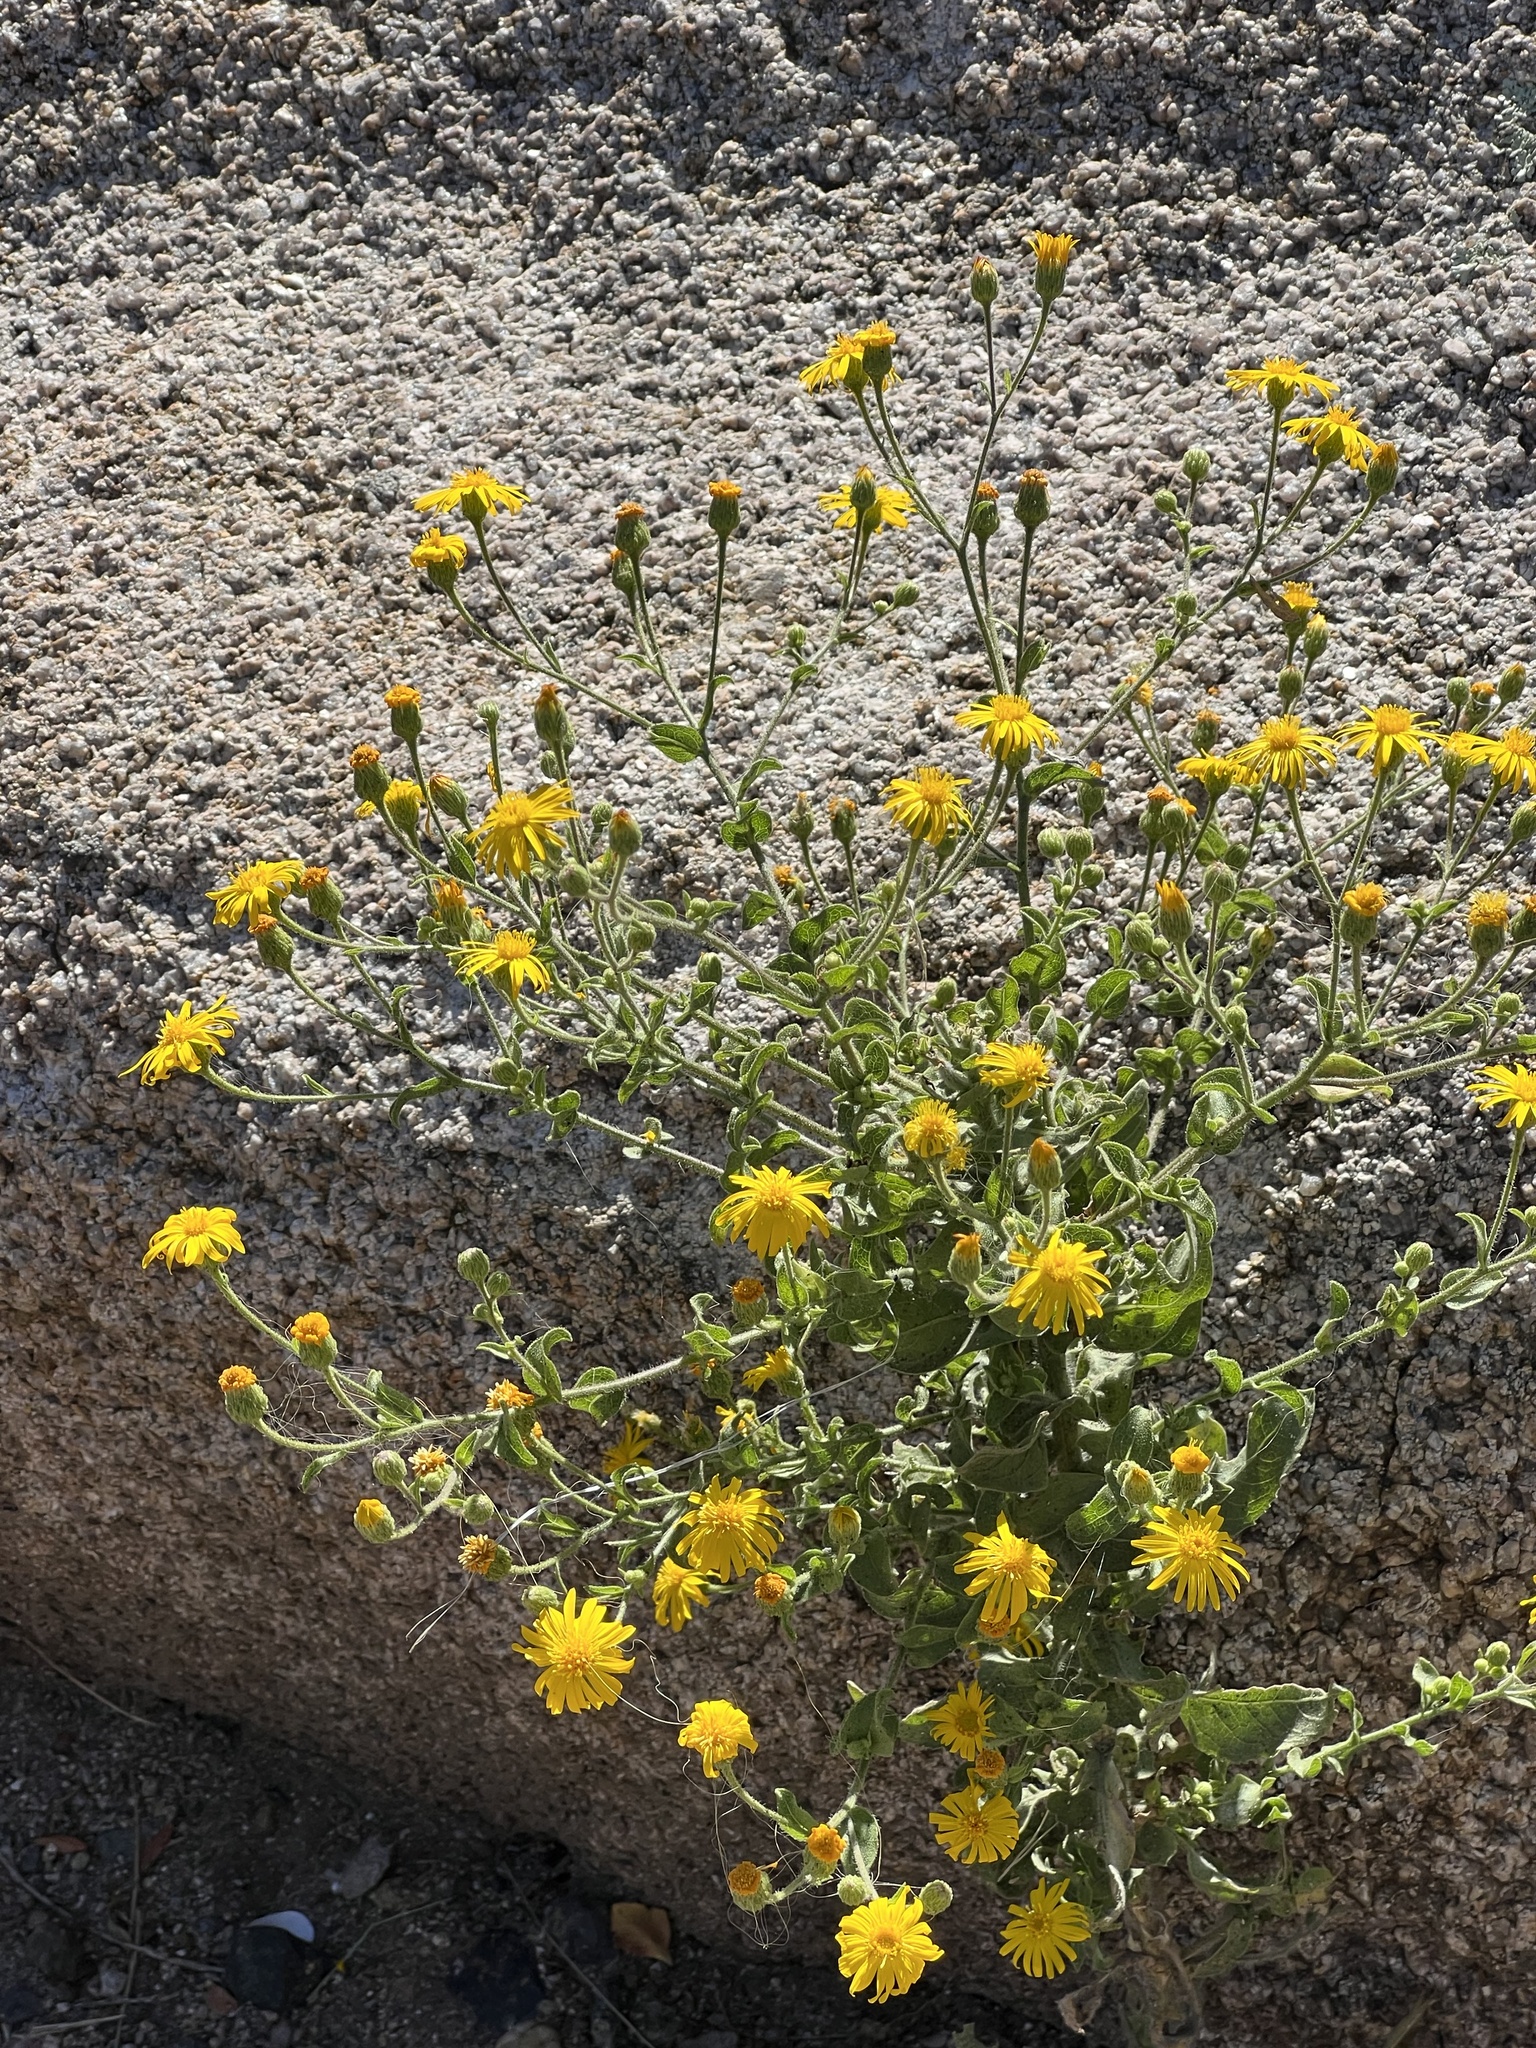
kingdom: Plantae
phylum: Tracheophyta
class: Magnoliopsida
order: Asterales
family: Asteraceae
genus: Heterotheca
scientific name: Heterotheca subaxillaris
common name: Camphorweed
